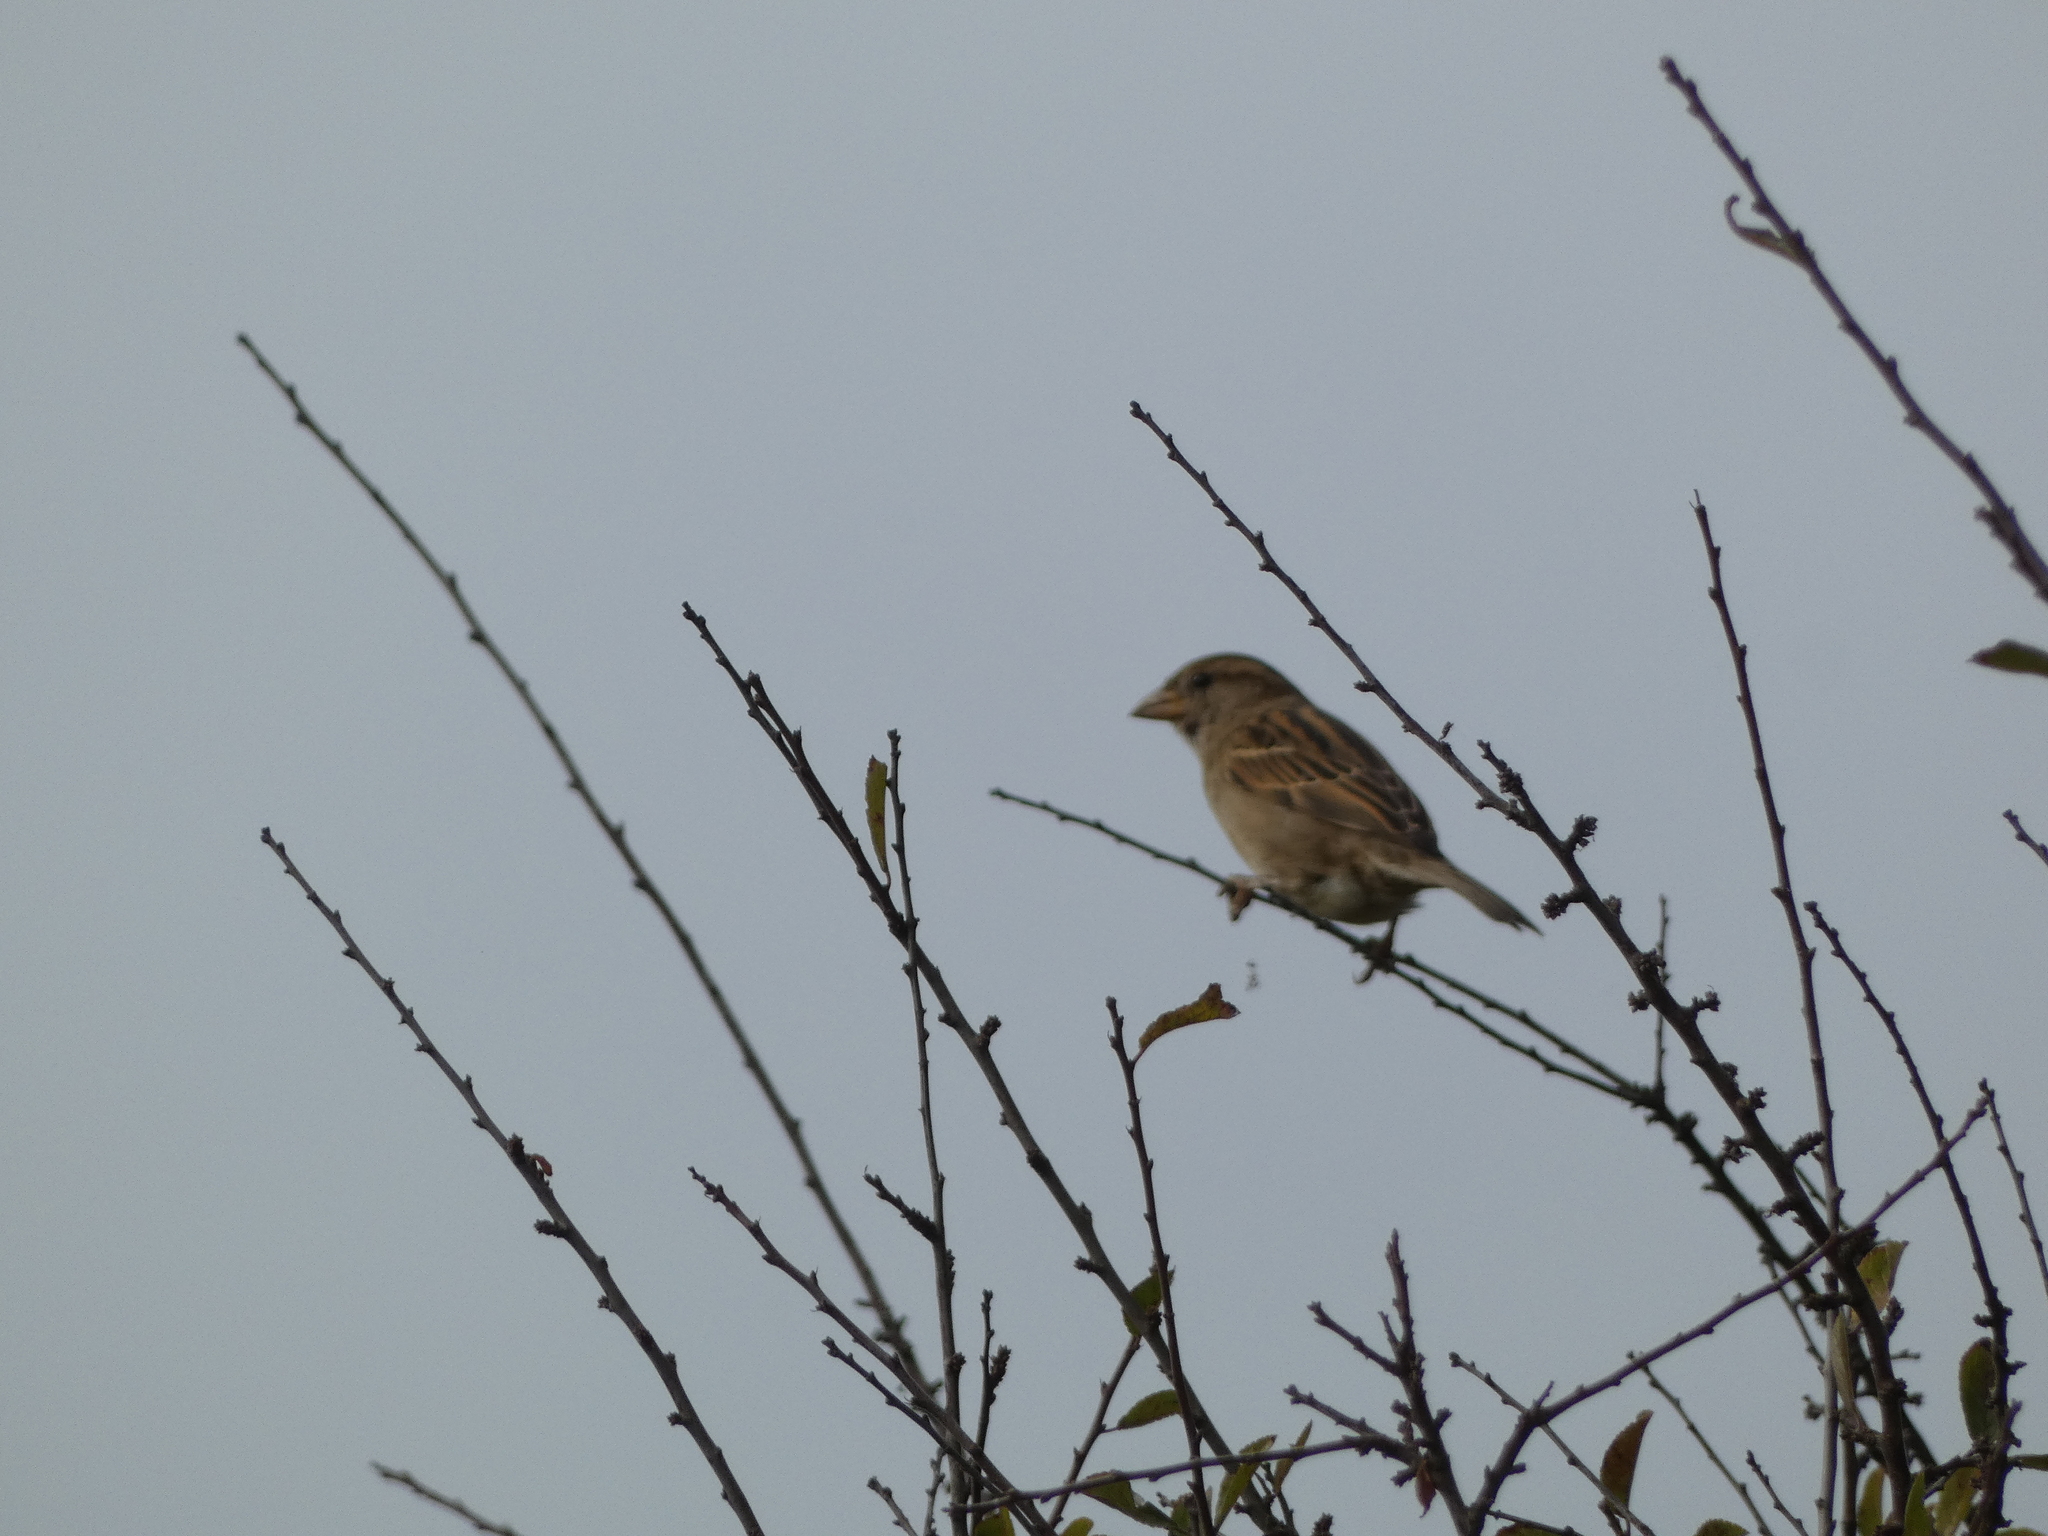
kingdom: Animalia
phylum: Chordata
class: Aves
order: Passeriformes
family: Passeridae
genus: Passer
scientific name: Passer domesticus
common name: House sparrow
